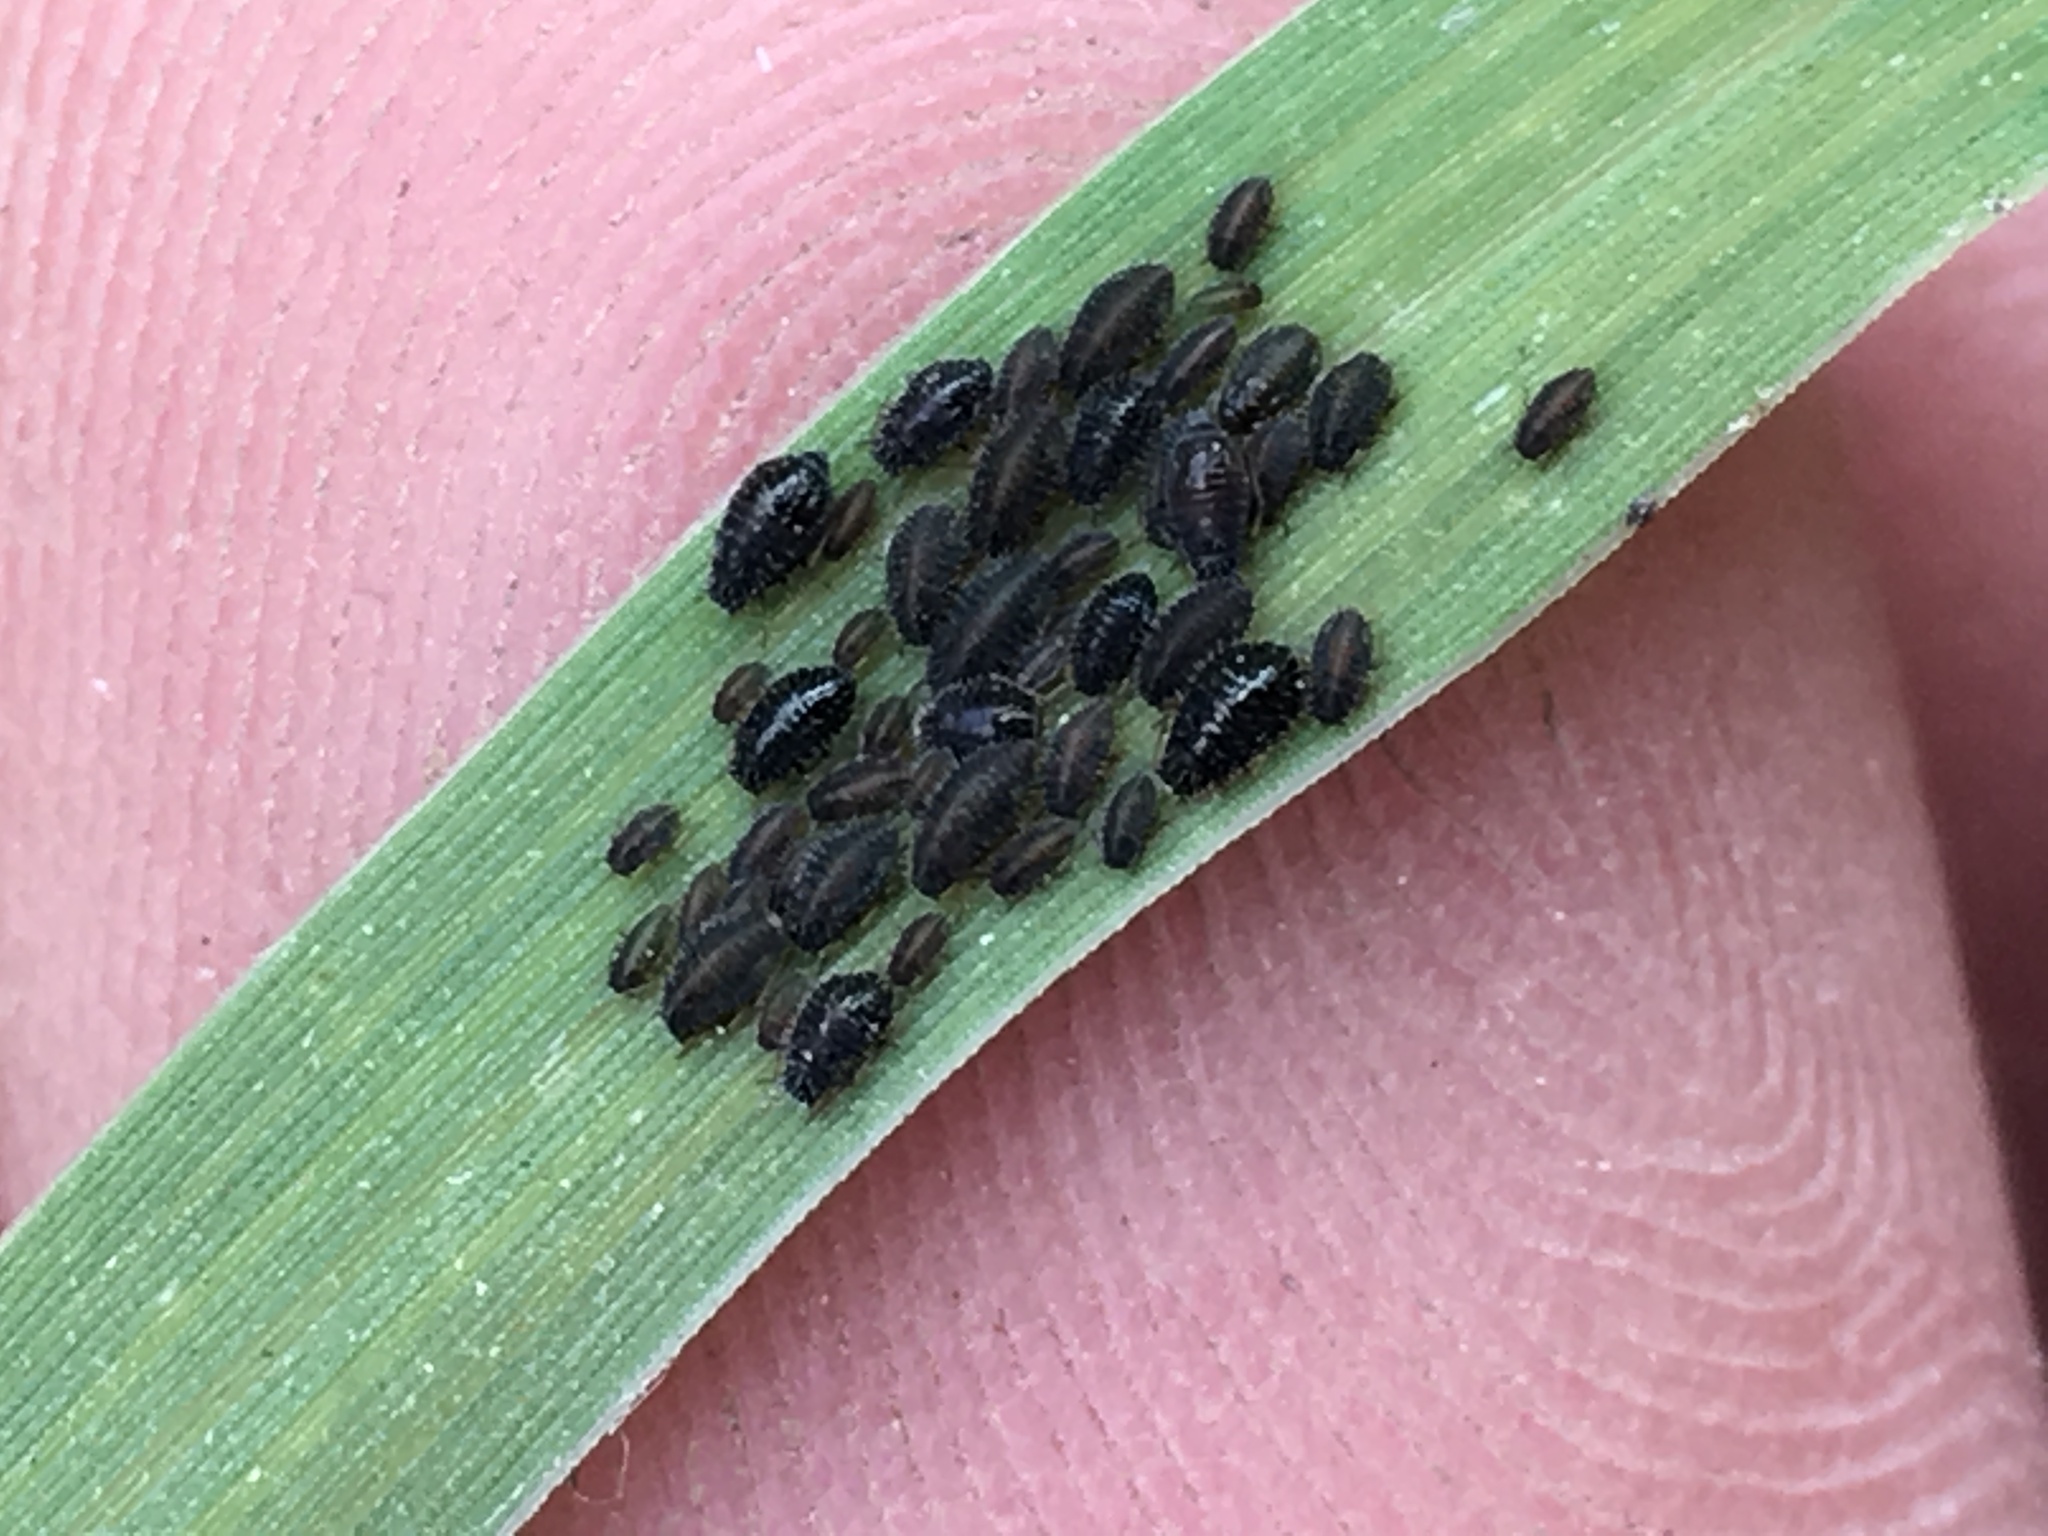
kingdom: Animalia
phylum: Arthropoda
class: Insecta
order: Hemiptera
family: Aphididae
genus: Sipha
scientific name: Sipha maydis
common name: Aphid
